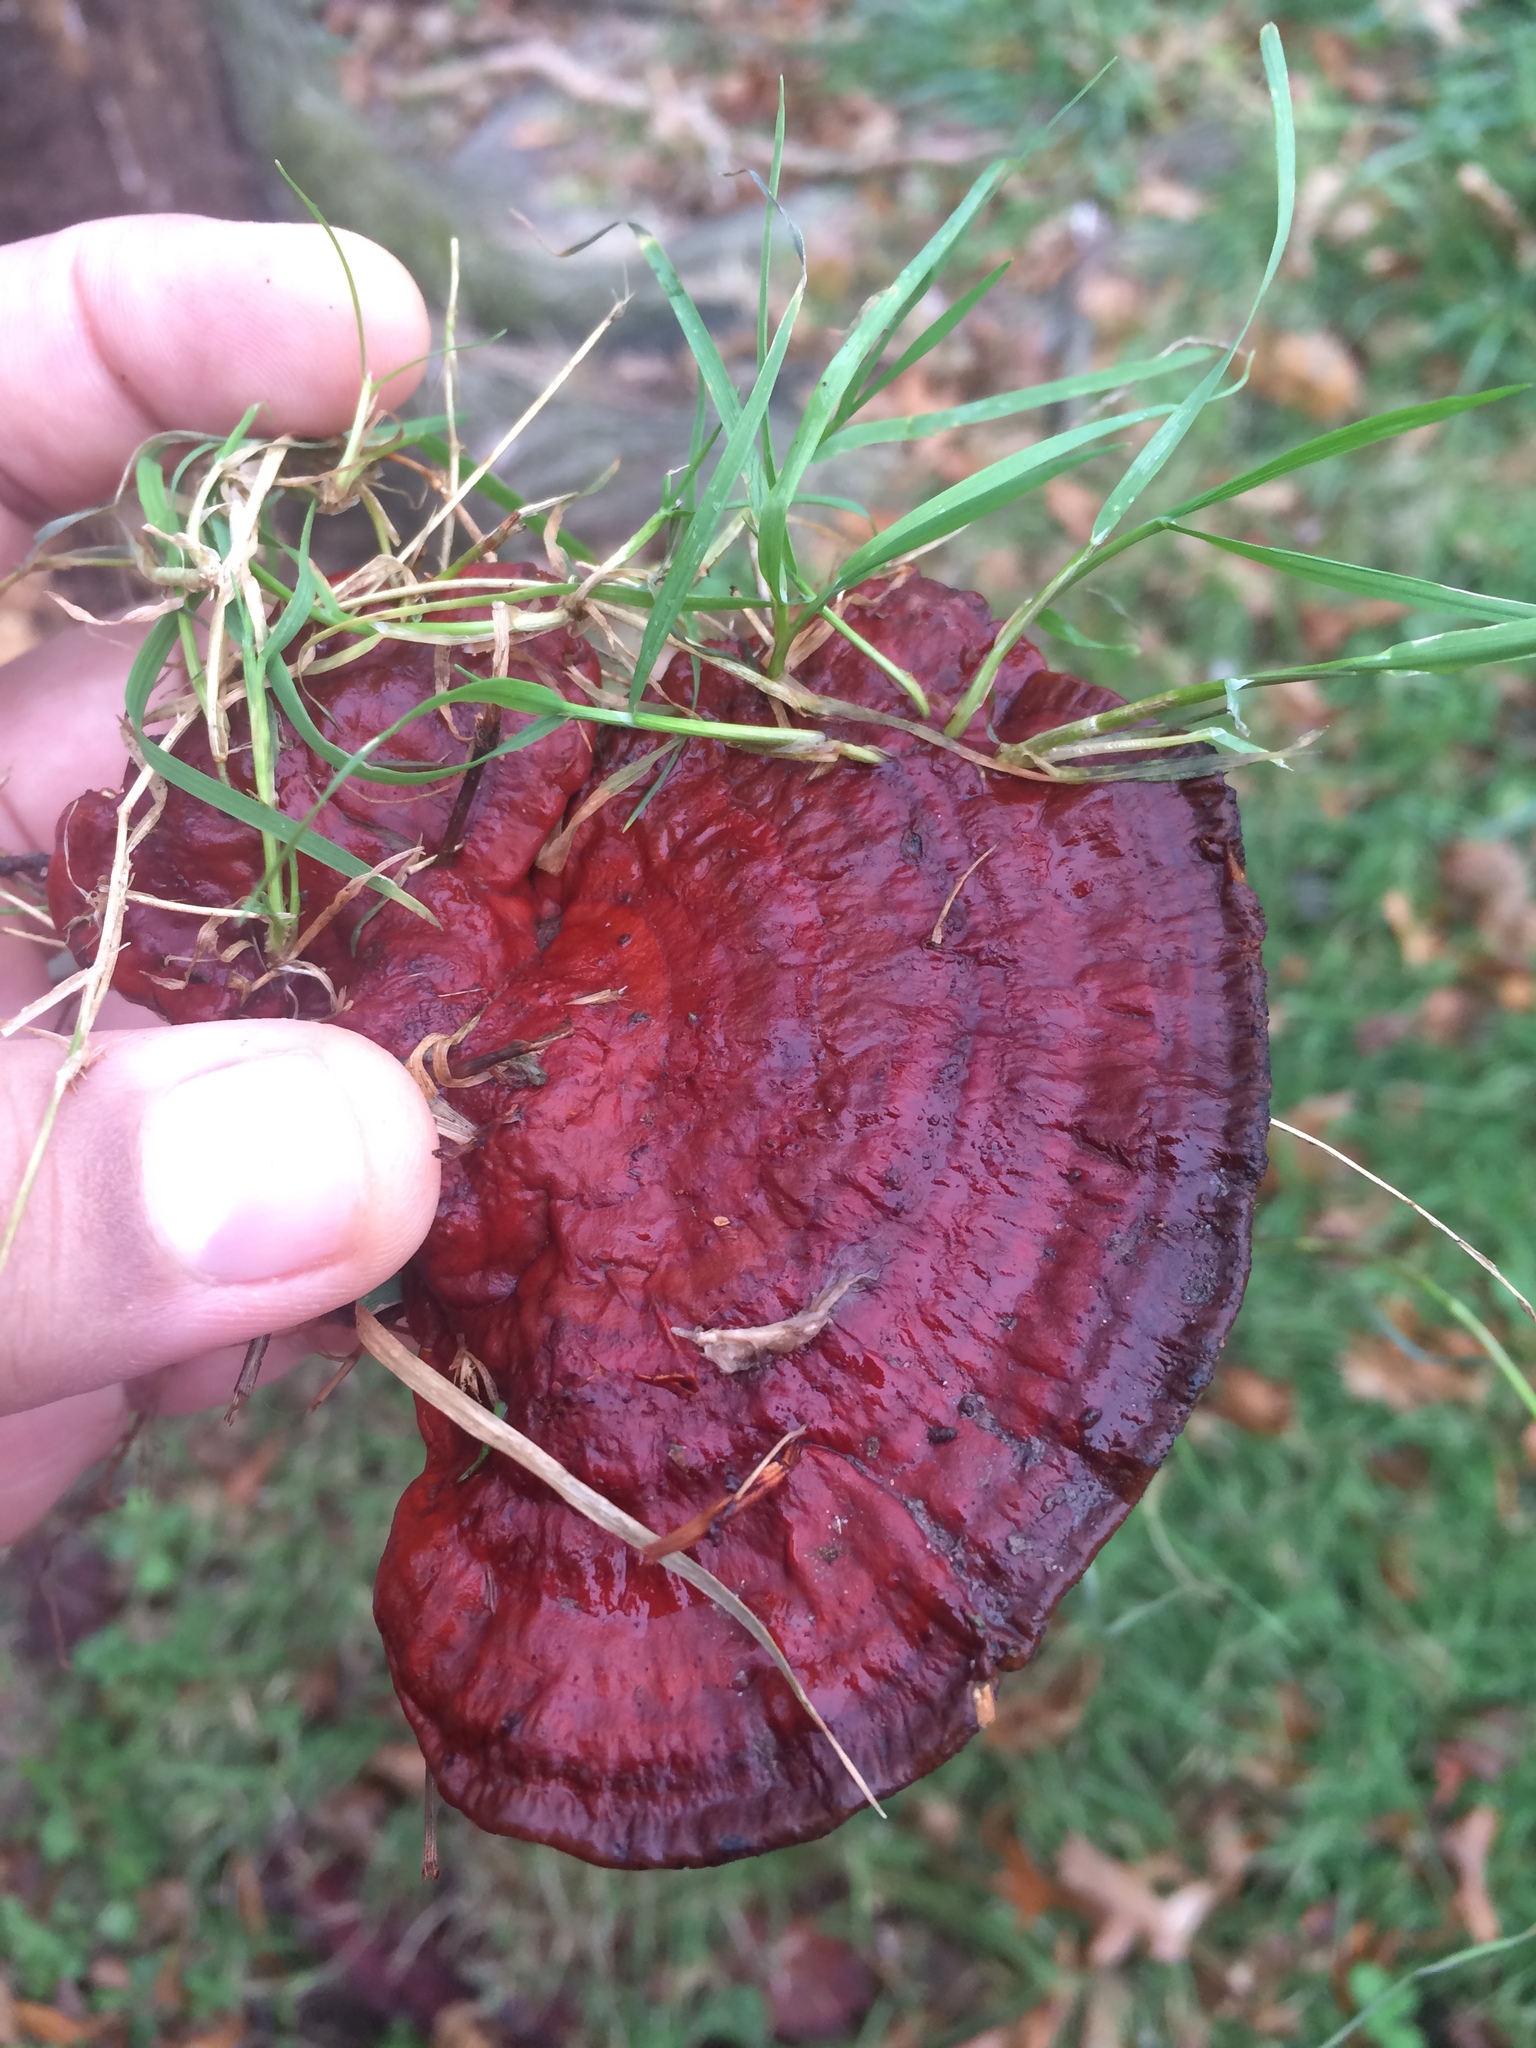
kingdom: Fungi
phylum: Basidiomycota
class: Agaricomycetes
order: Polyporales
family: Polyporaceae
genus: Ganoderma
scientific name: Ganoderma resinaceum
